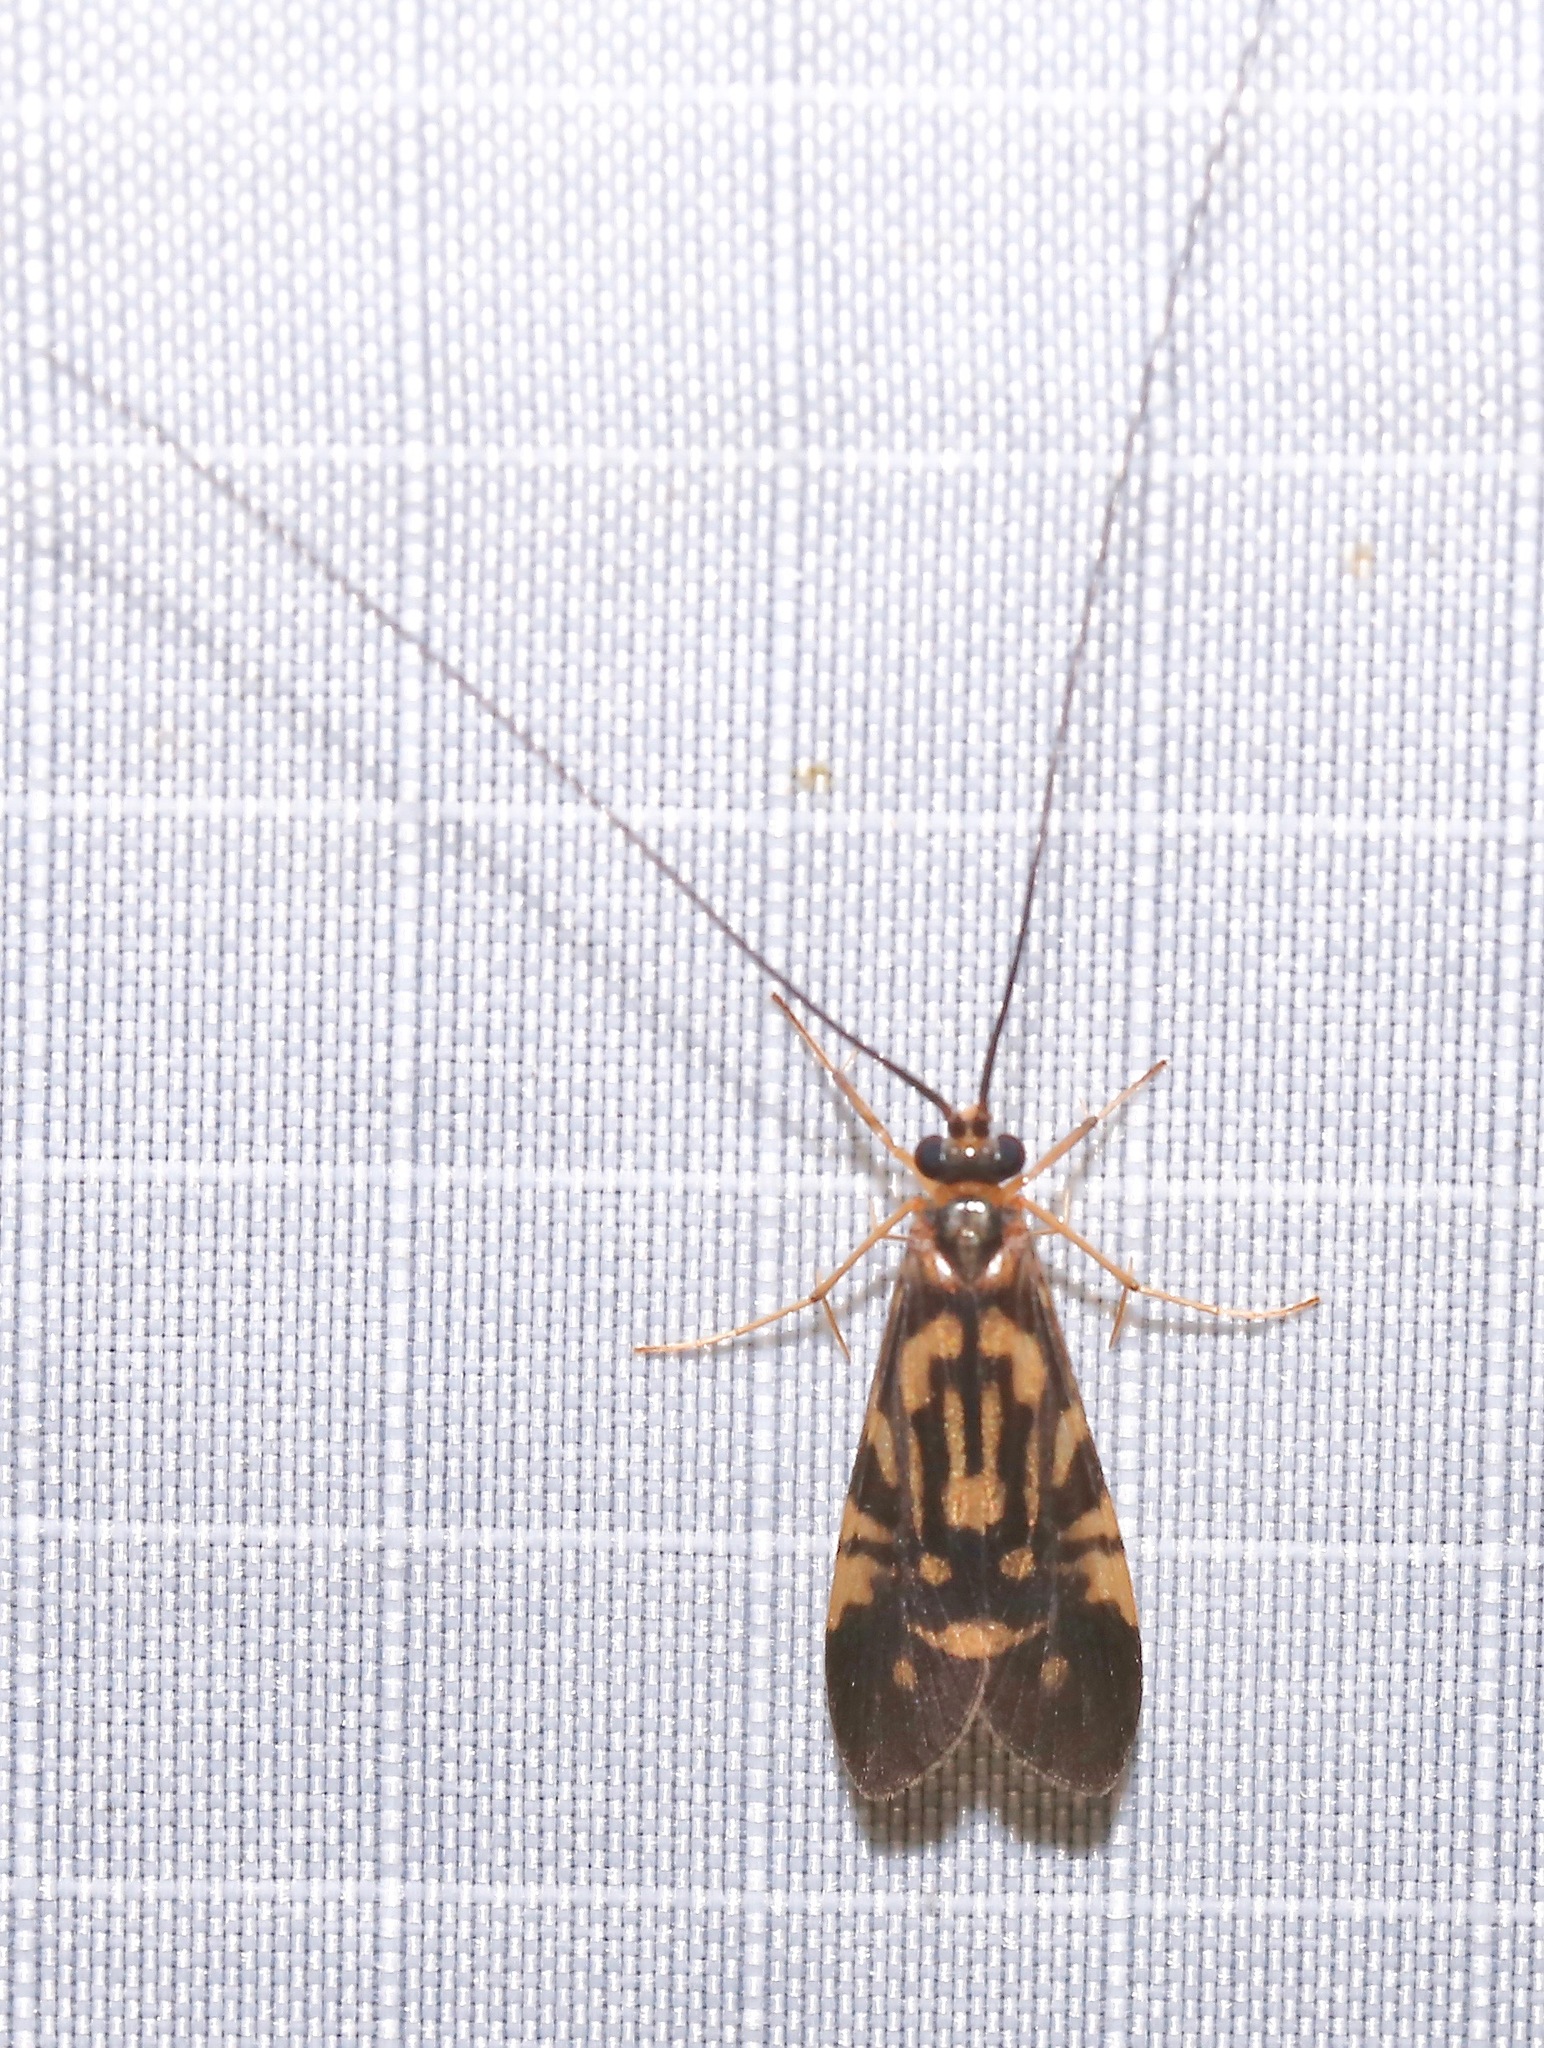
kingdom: Animalia
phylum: Arthropoda
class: Insecta
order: Trichoptera
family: Hydropsychidae
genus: Macrostemum
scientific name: Macrostemum zebratum
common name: Zebra caddisfly
